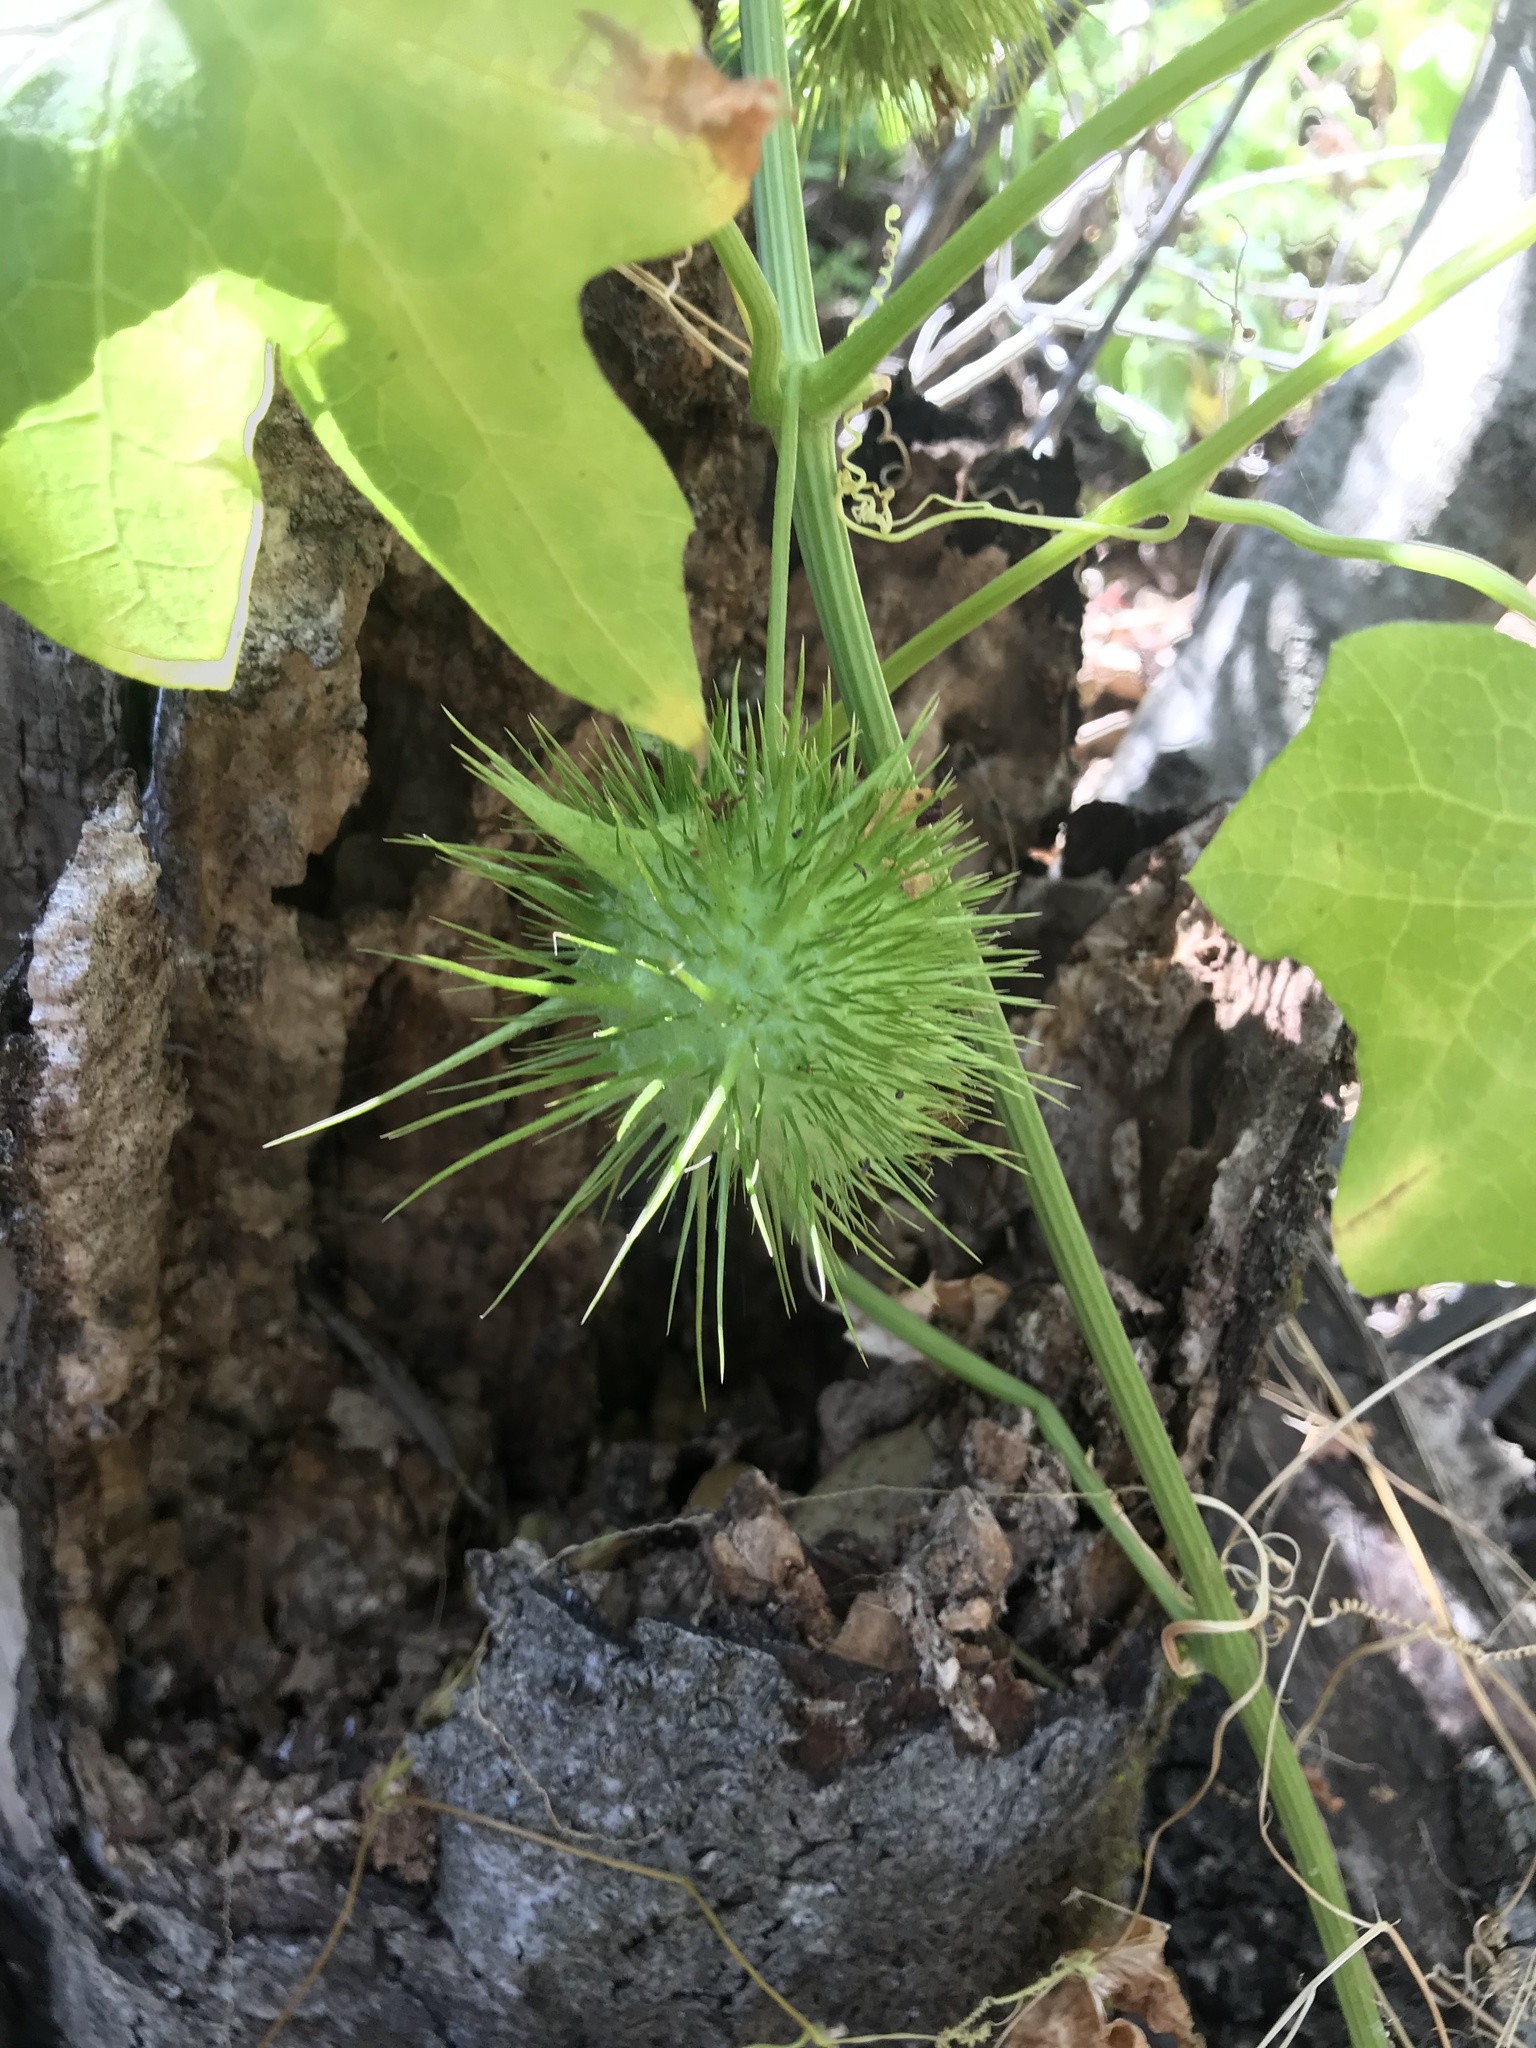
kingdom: Plantae
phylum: Tracheophyta
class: Magnoliopsida
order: Cucurbitales
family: Cucurbitaceae
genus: Marah
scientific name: Marah fabacea
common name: California manroot
